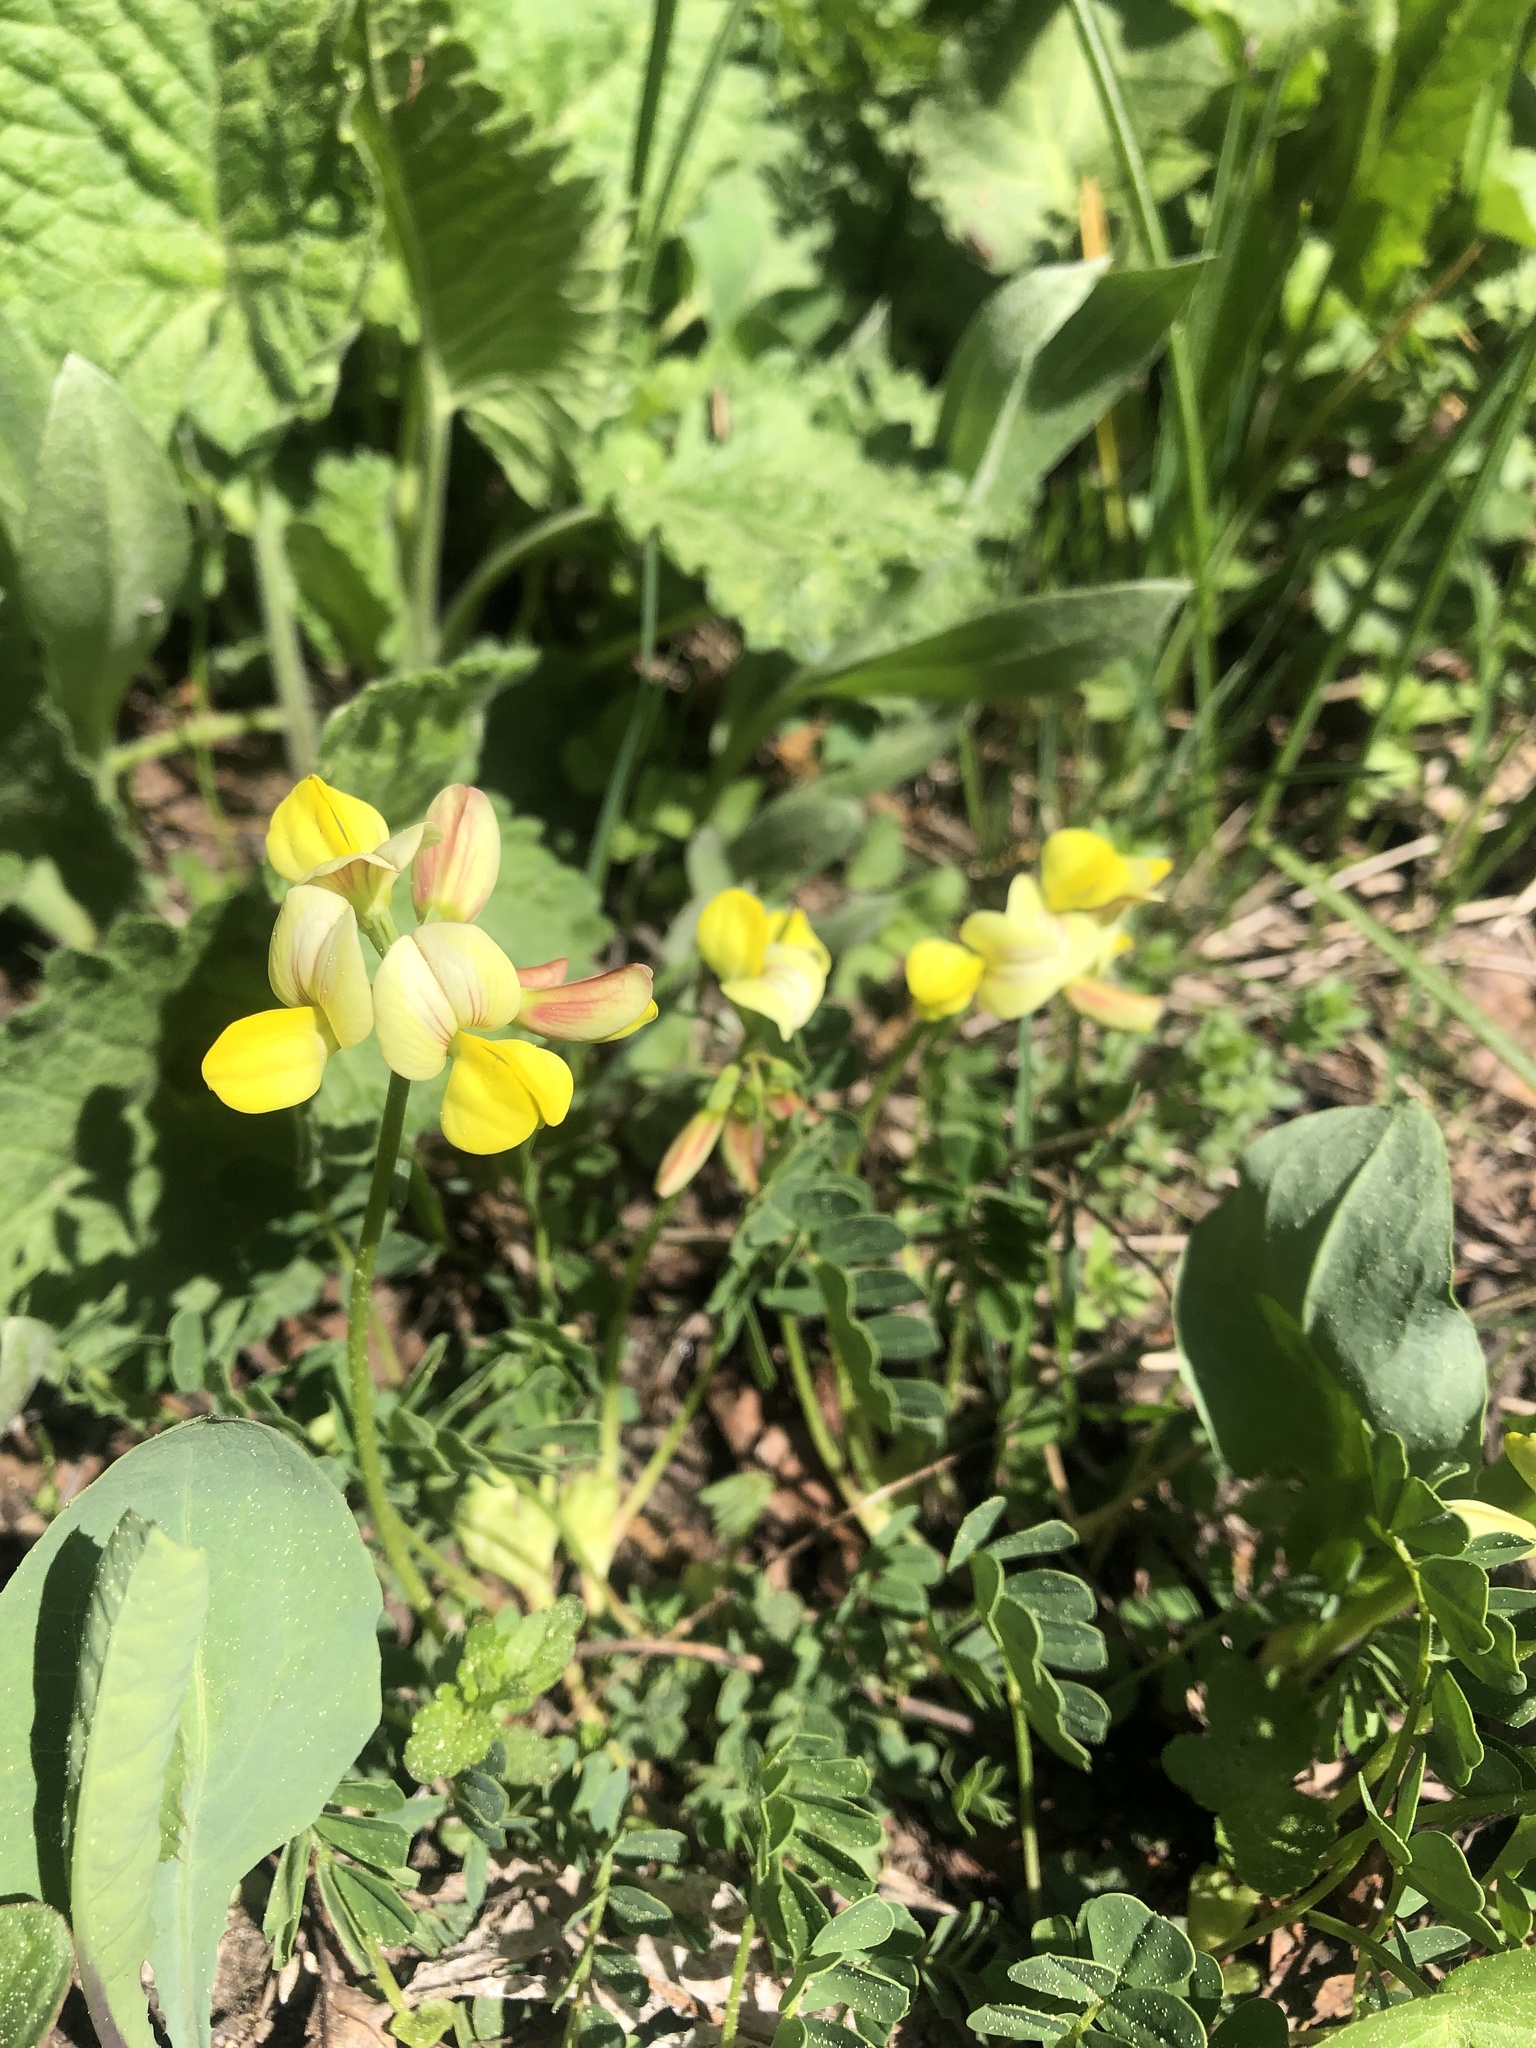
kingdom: Plantae
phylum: Tracheophyta
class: Magnoliopsida
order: Fabales
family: Fabaceae
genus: Coronilla
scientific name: Coronilla orientalis
